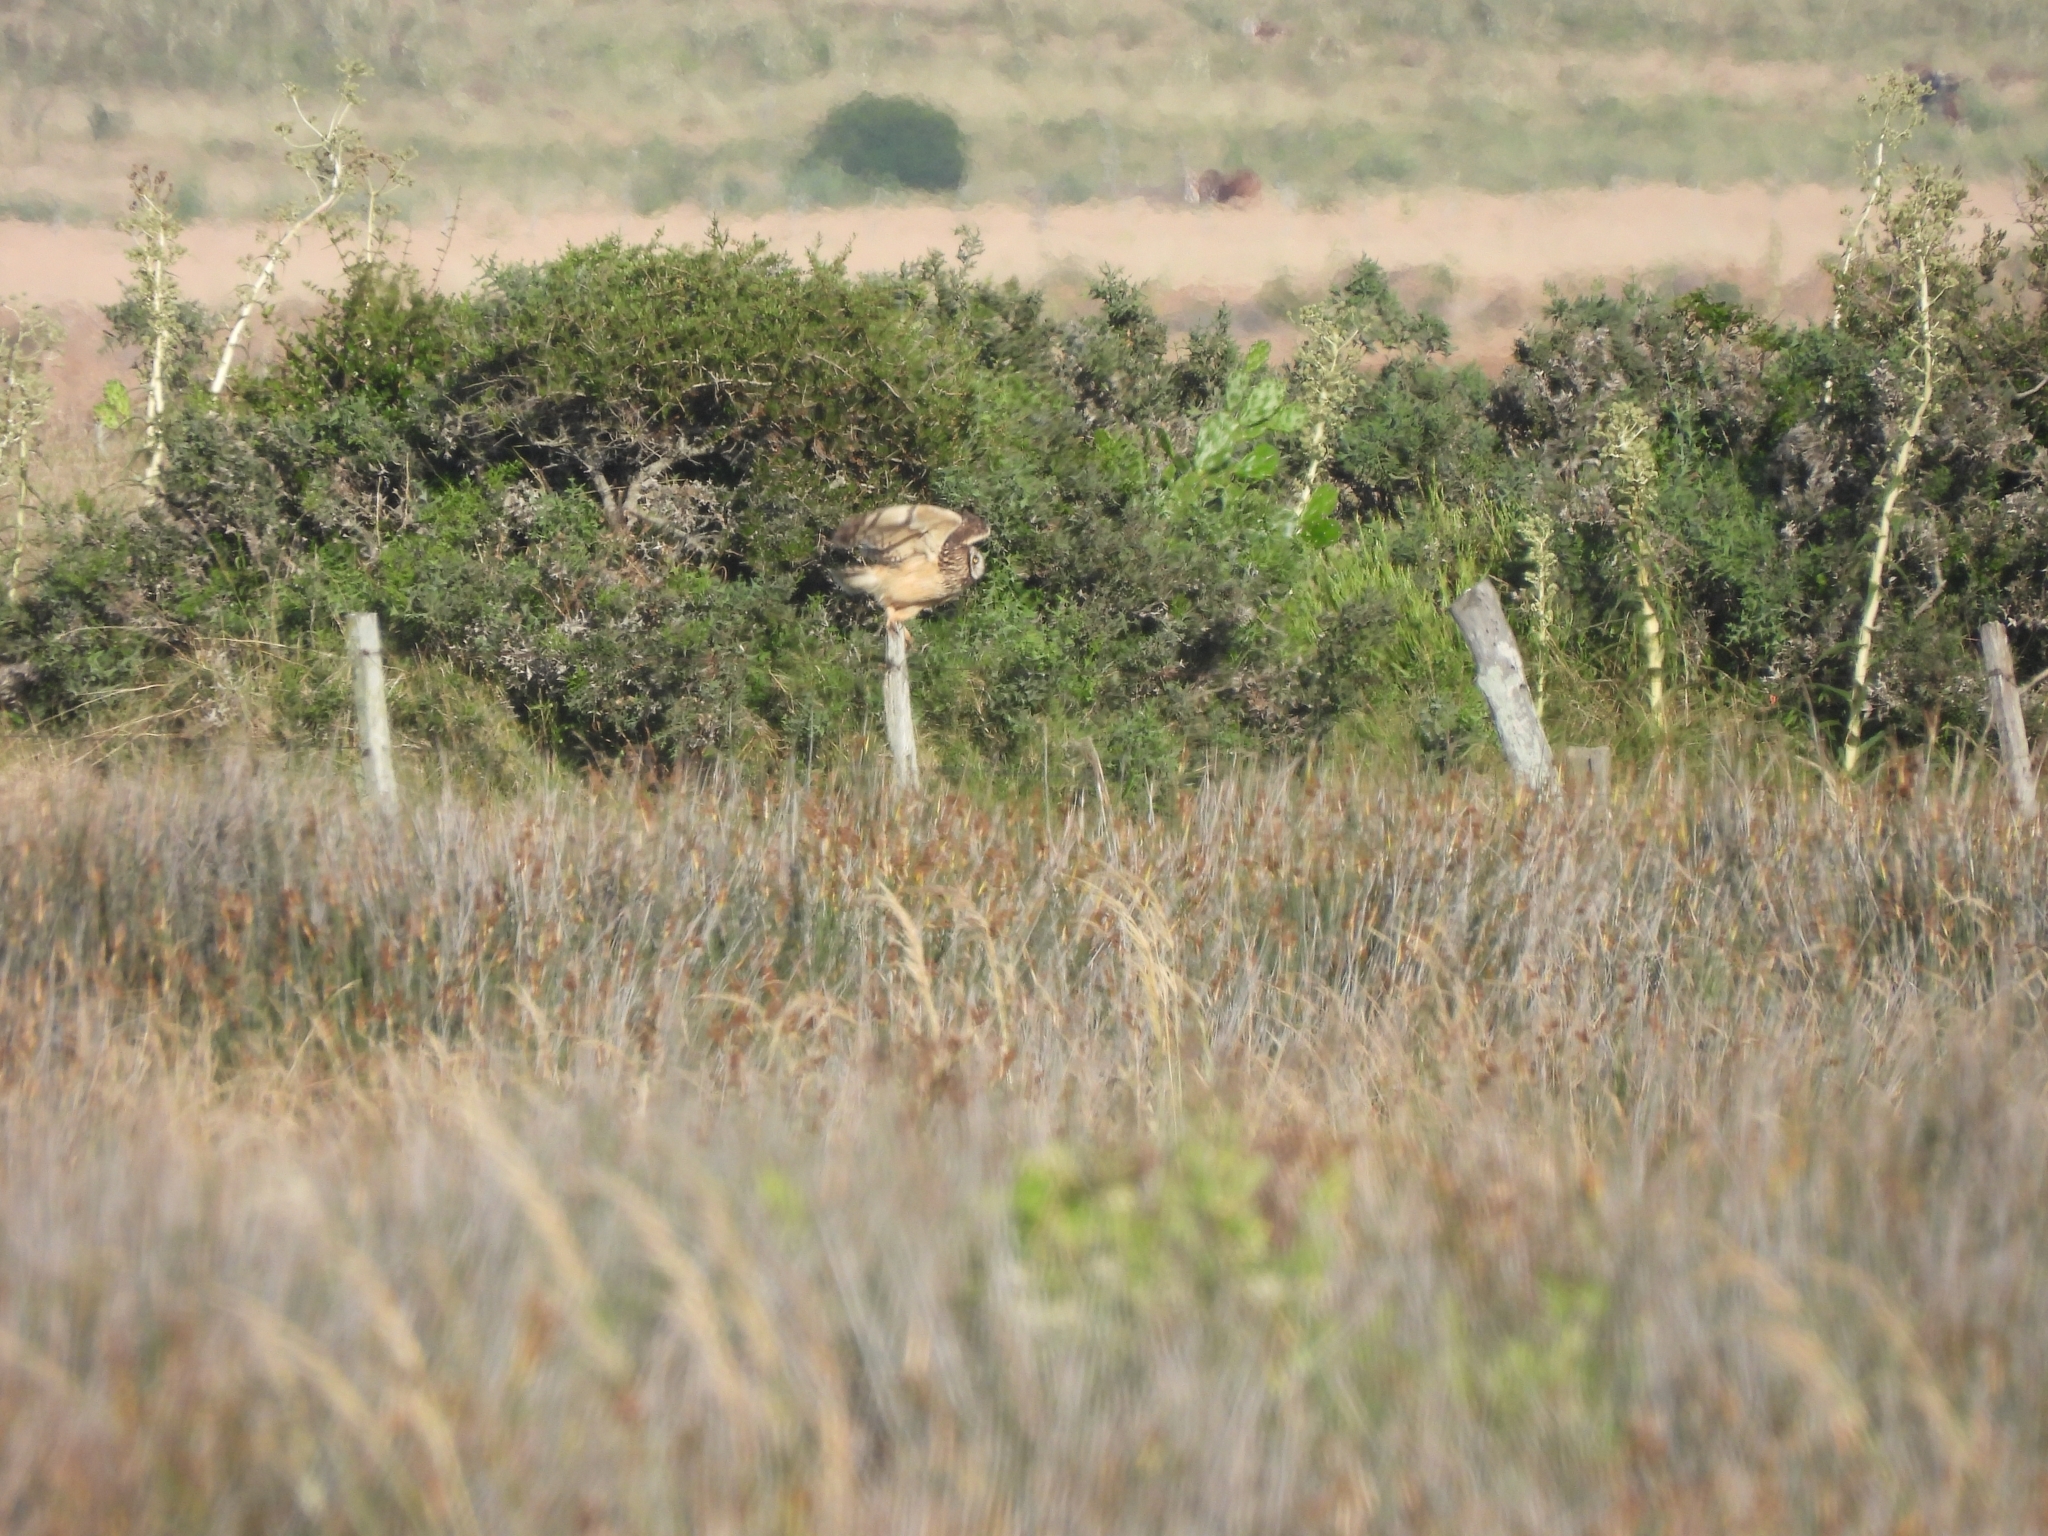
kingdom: Animalia
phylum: Chordata
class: Aves
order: Strigiformes
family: Strigidae
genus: Asio
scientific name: Asio flammeus
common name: Short-eared owl
